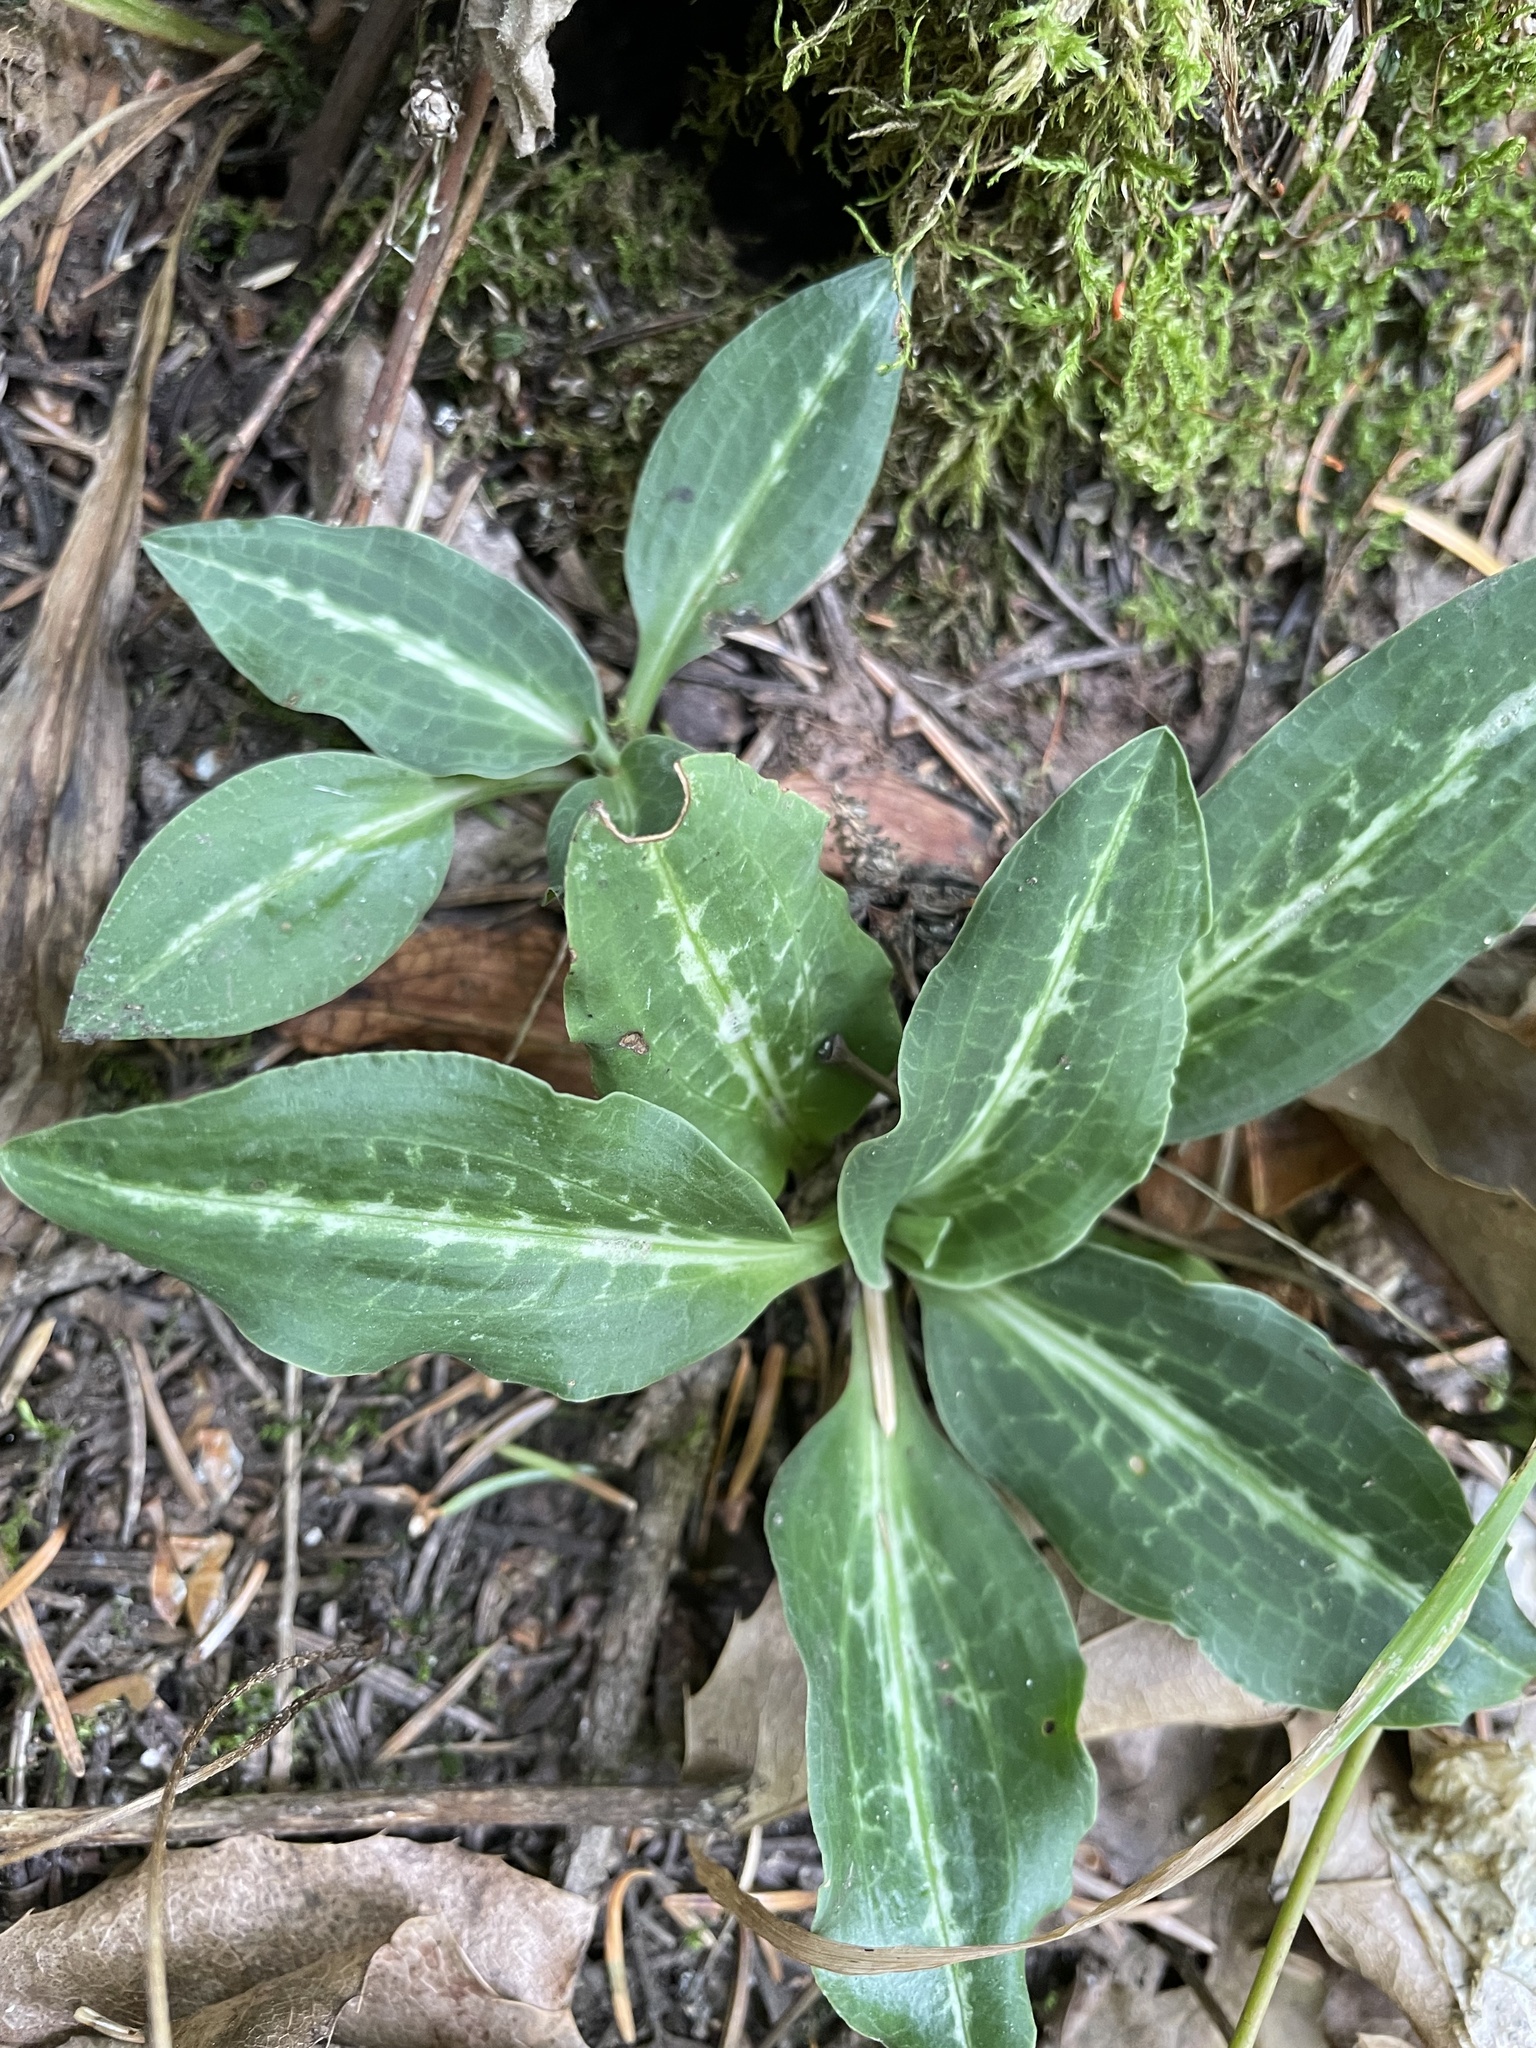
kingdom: Plantae
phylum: Tracheophyta
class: Liliopsida
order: Asparagales
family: Orchidaceae
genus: Goodyera
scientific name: Goodyera oblongifolia
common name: Giant rattlesnake-plantain
